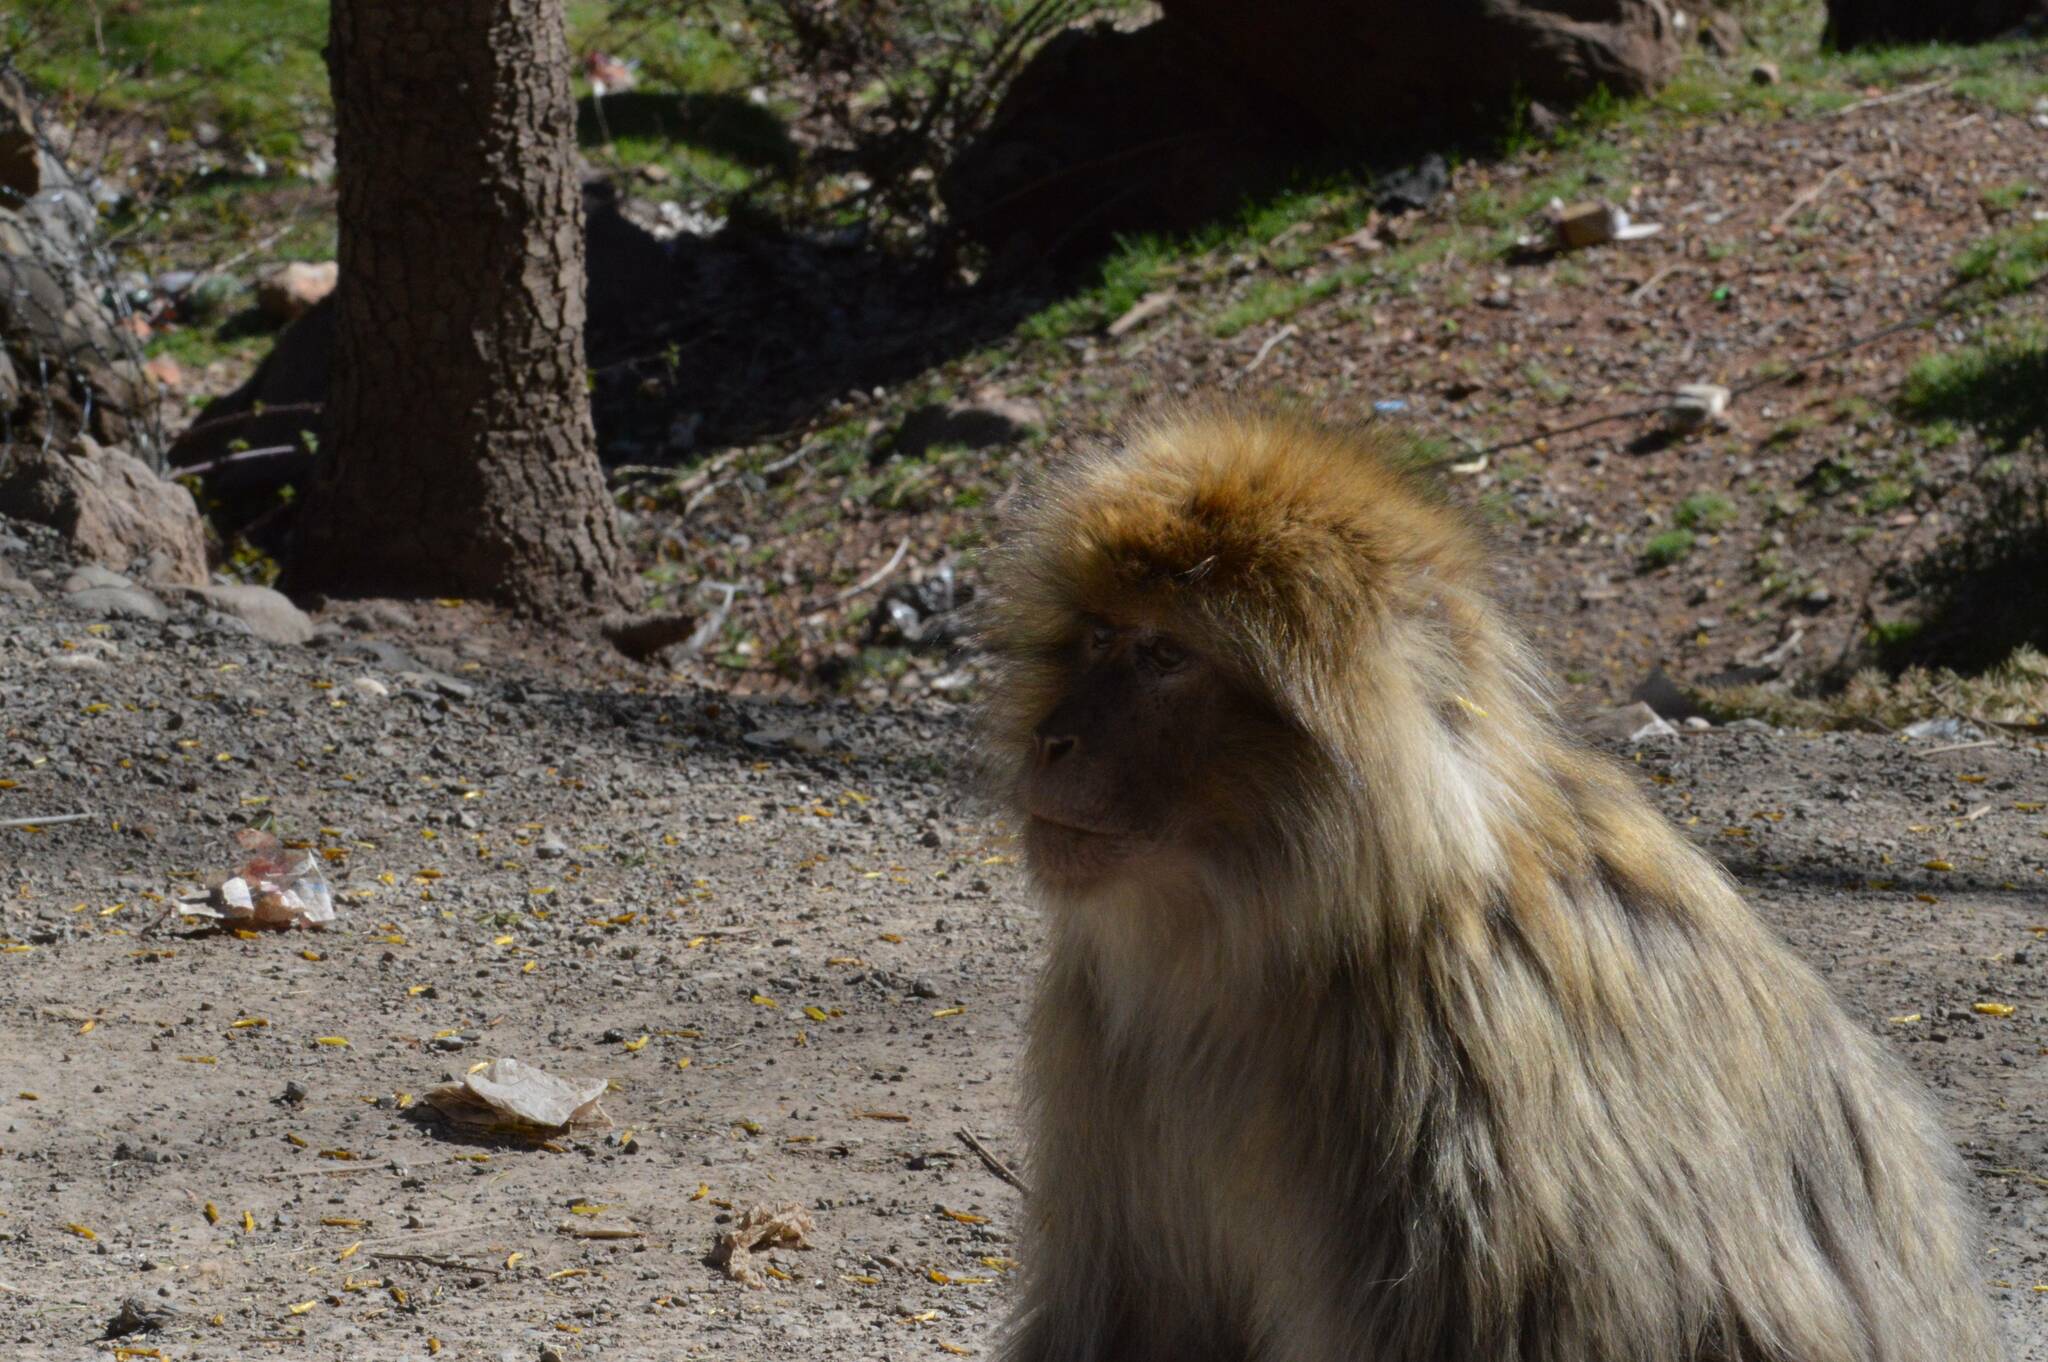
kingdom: Animalia
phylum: Chordata
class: Mammalia
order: Primates
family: Cercopithecidae
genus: Macaca
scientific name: Macaca sylvanus
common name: Barbary macaque
